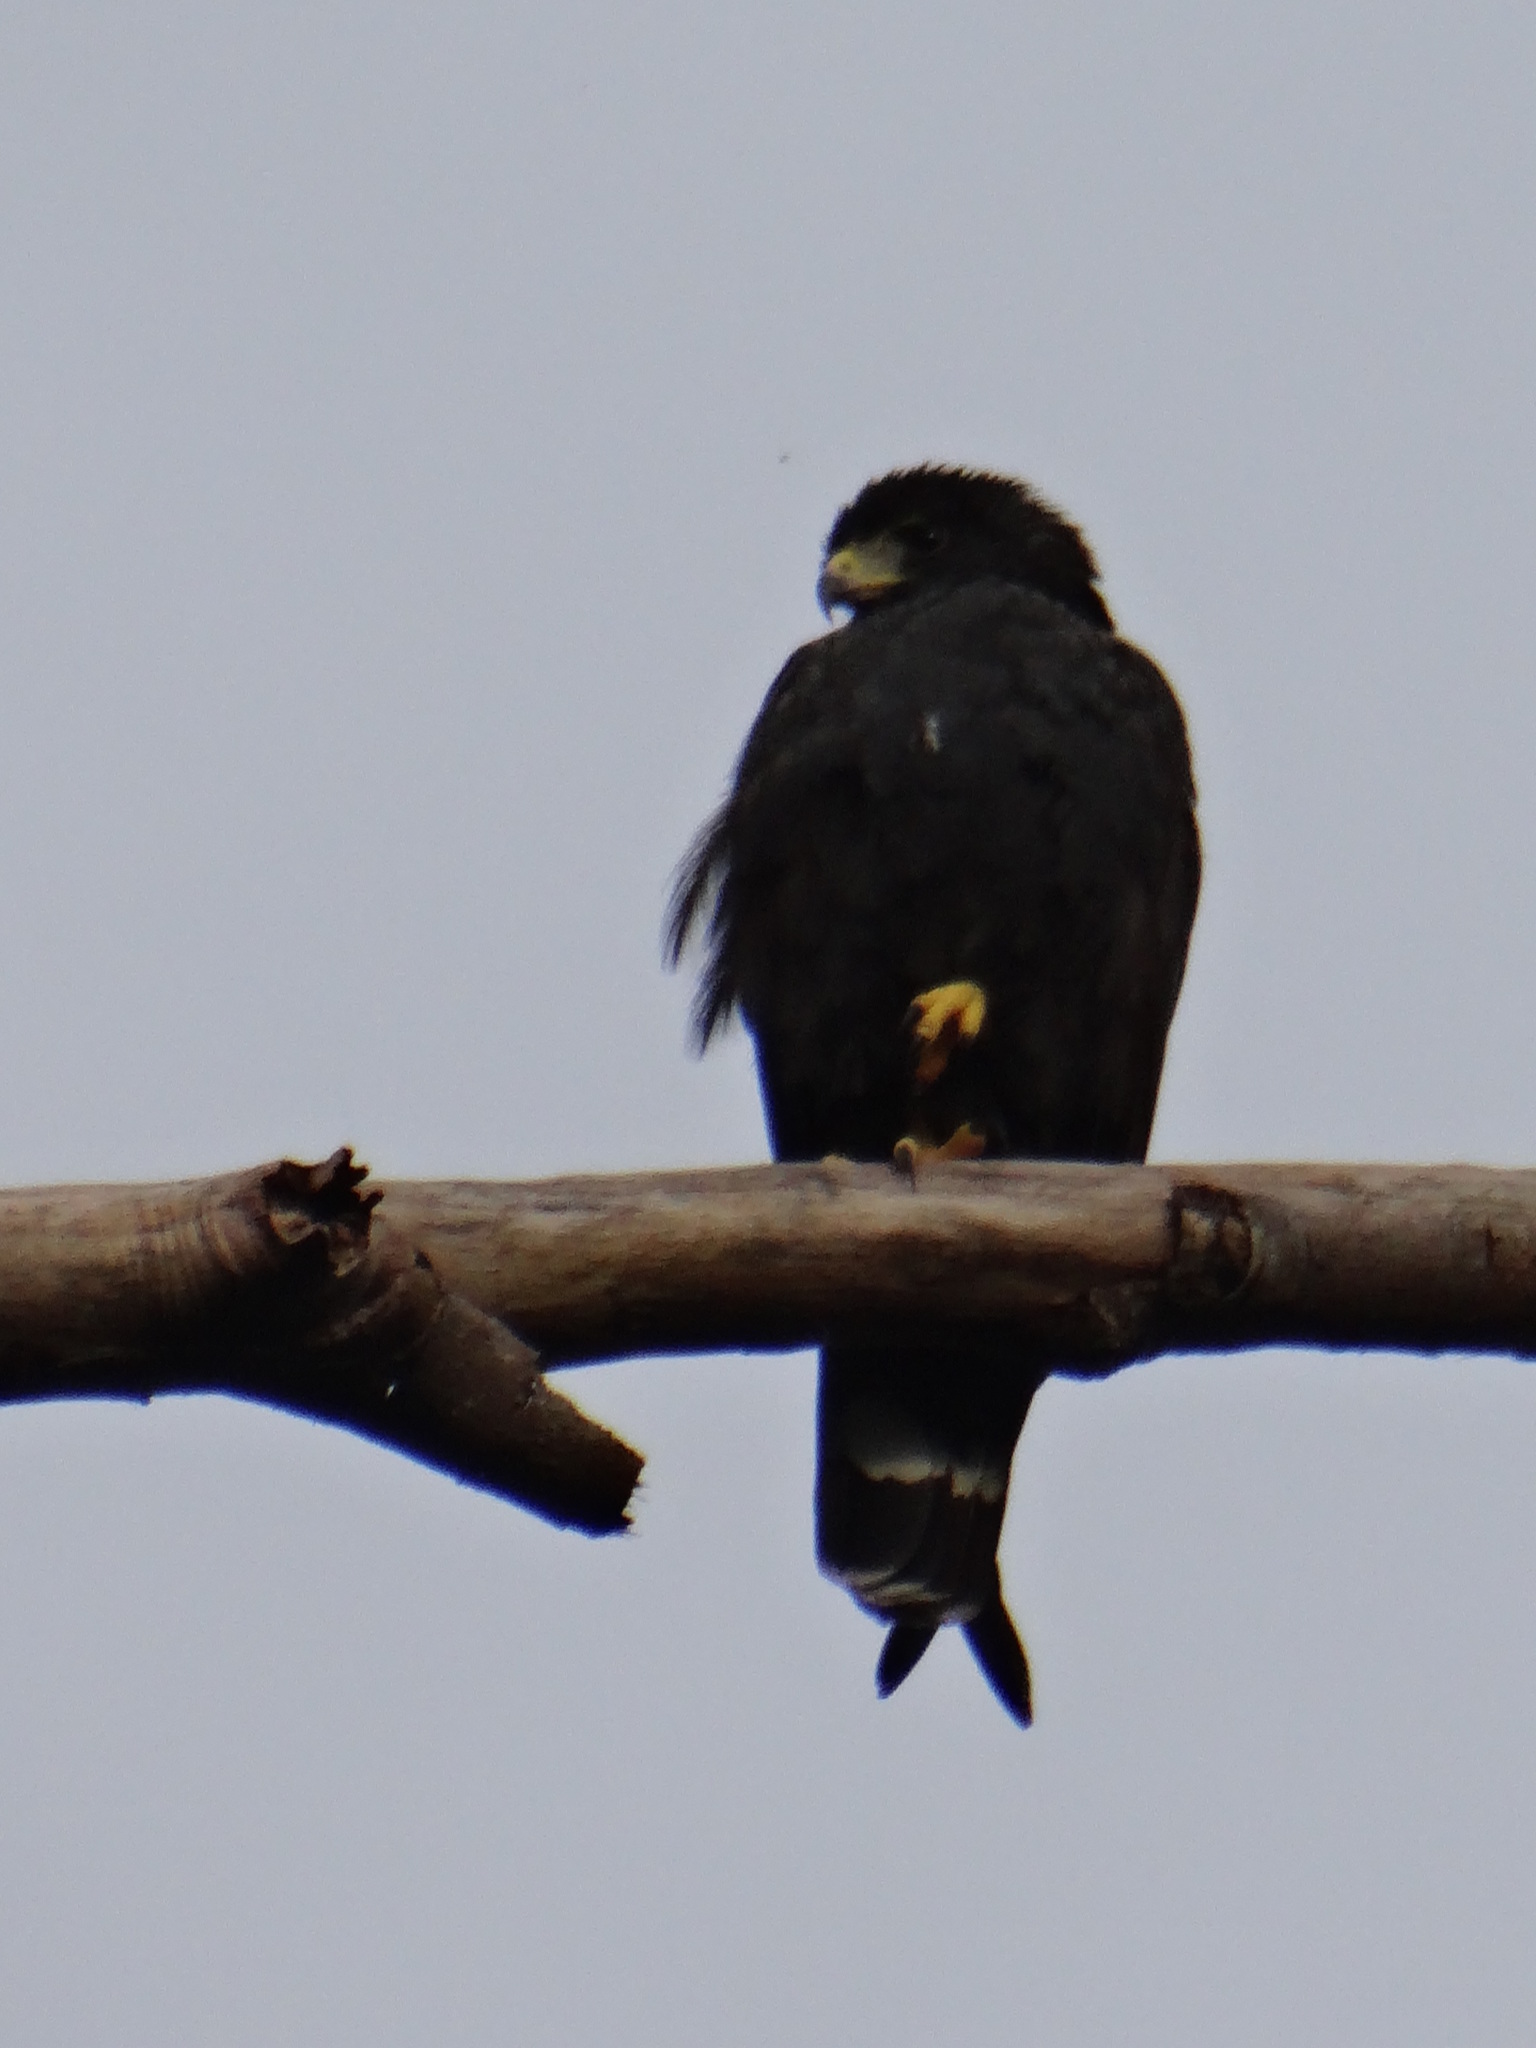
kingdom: Animalia
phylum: Chordata
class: Aves
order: Accipitriformes
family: Accipitridae
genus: Buteo
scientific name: Buteo albonotatus
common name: Zone-tailed hawk
